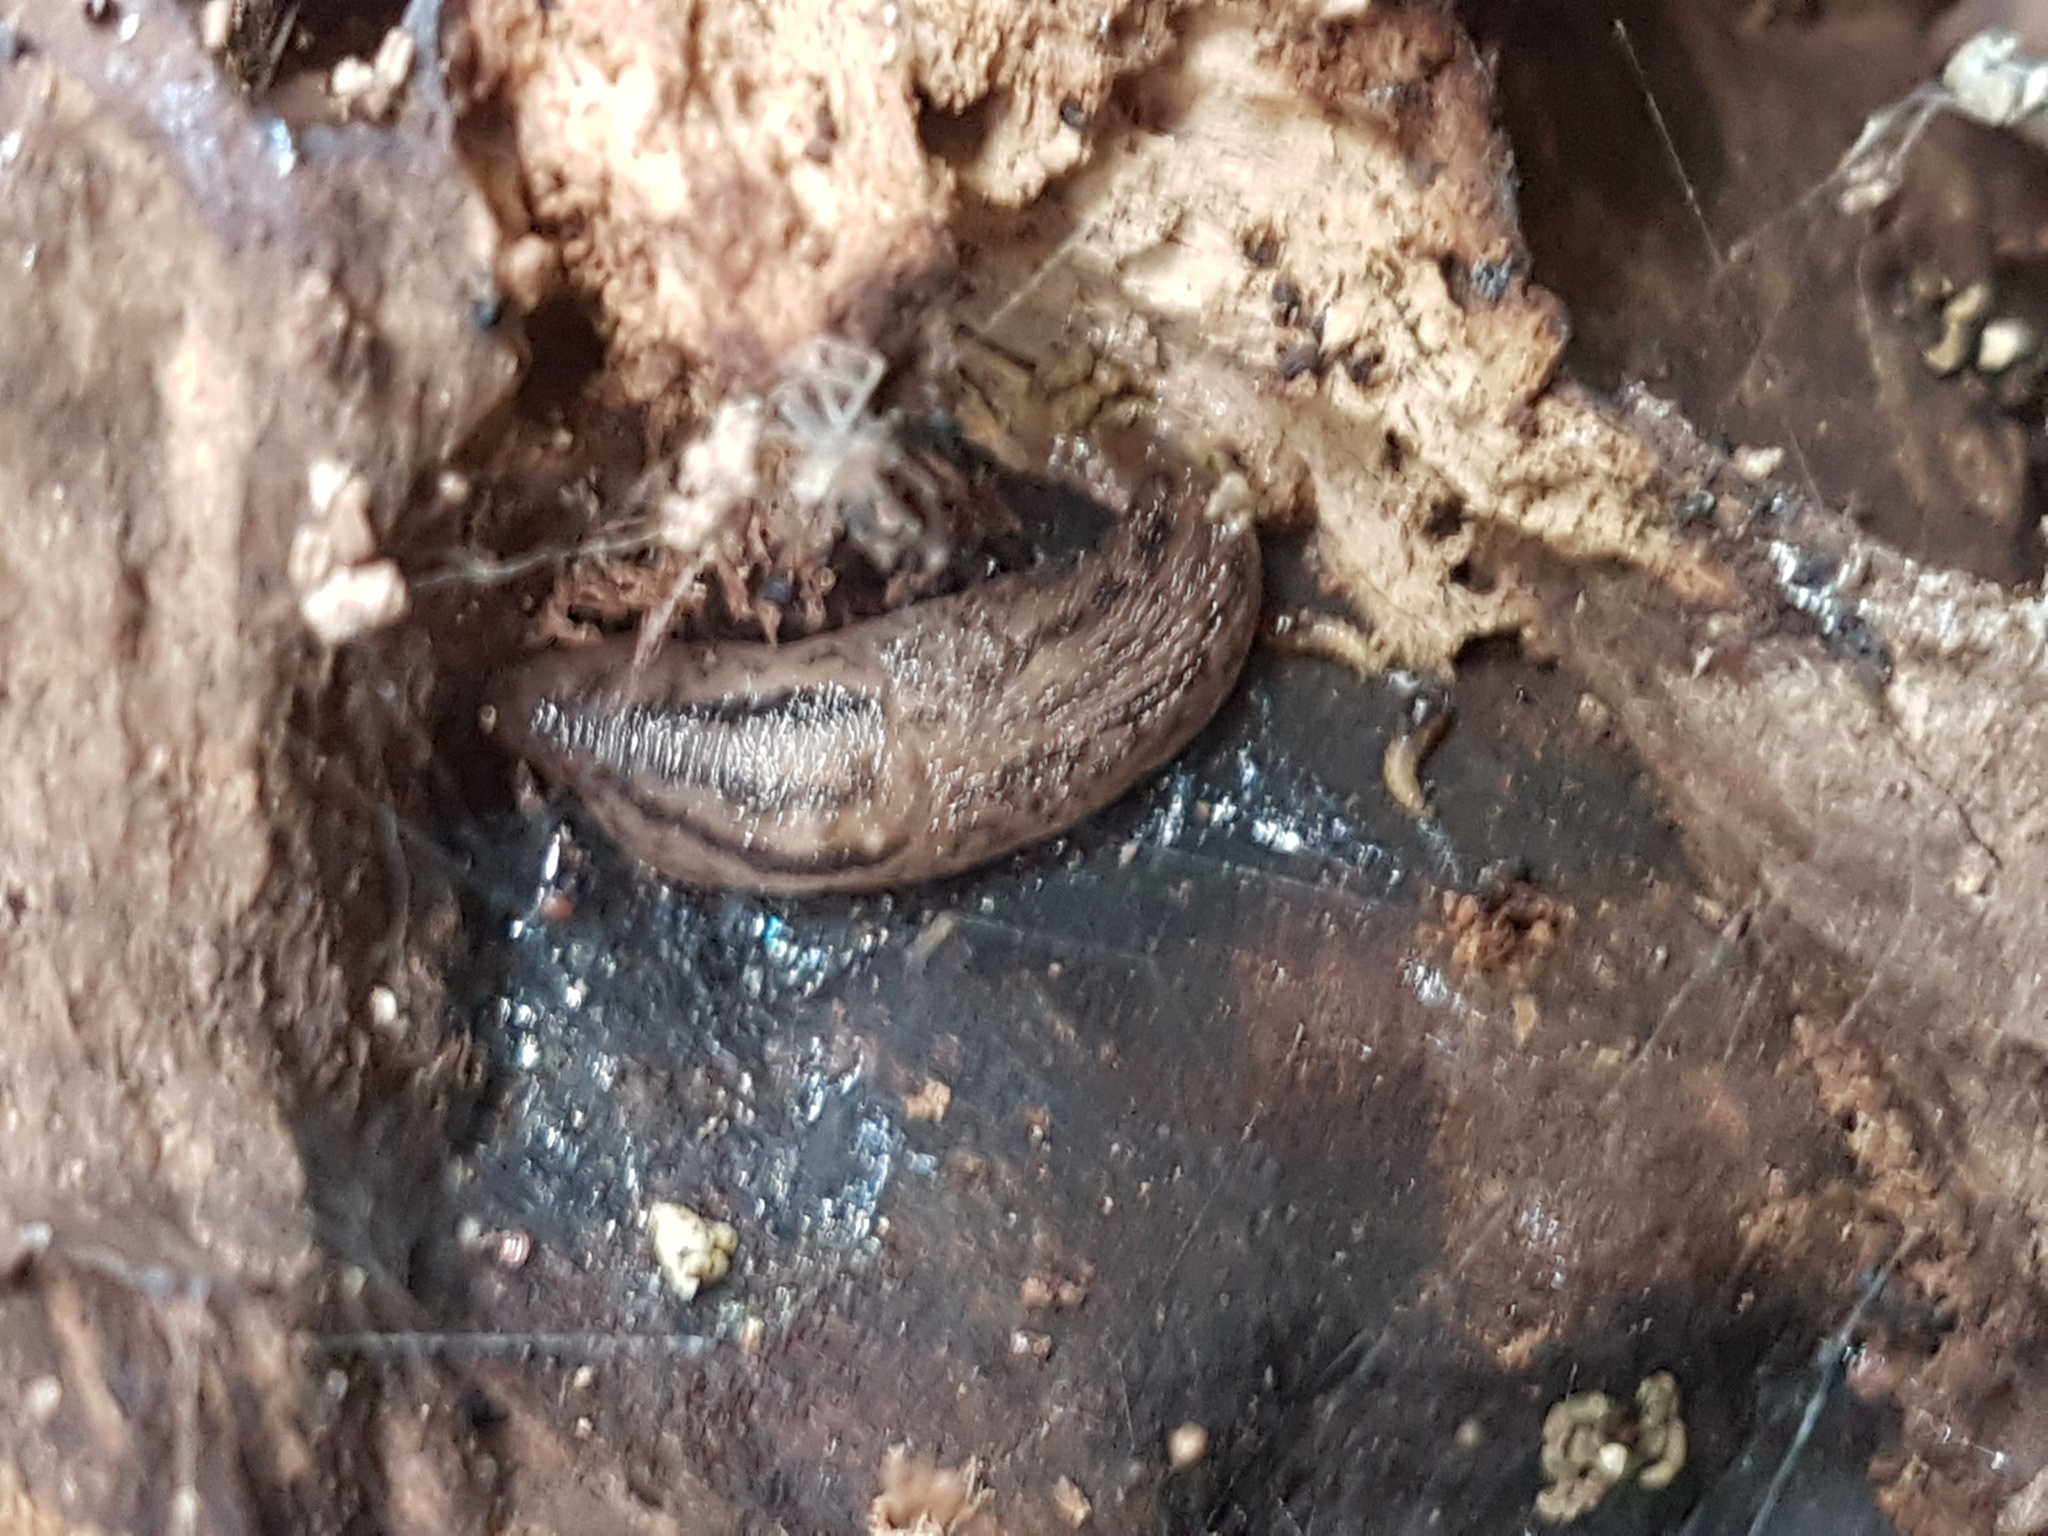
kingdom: Animalia
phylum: Mollusca
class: Gastropoda
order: Stylommatophora
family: Limacidae
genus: Ambigolimax
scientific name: Ambigolimax
